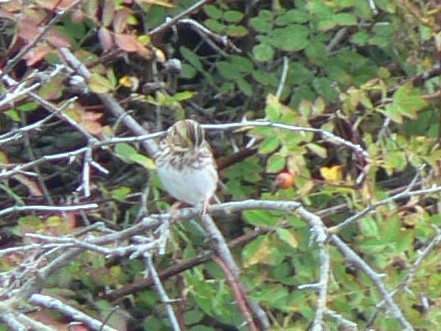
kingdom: Animalia
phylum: Chordata
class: Aves
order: Passeriformes
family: Passerellidae
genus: Passerculus
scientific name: Passerculus sandwichensis
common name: Savannah sparrow
